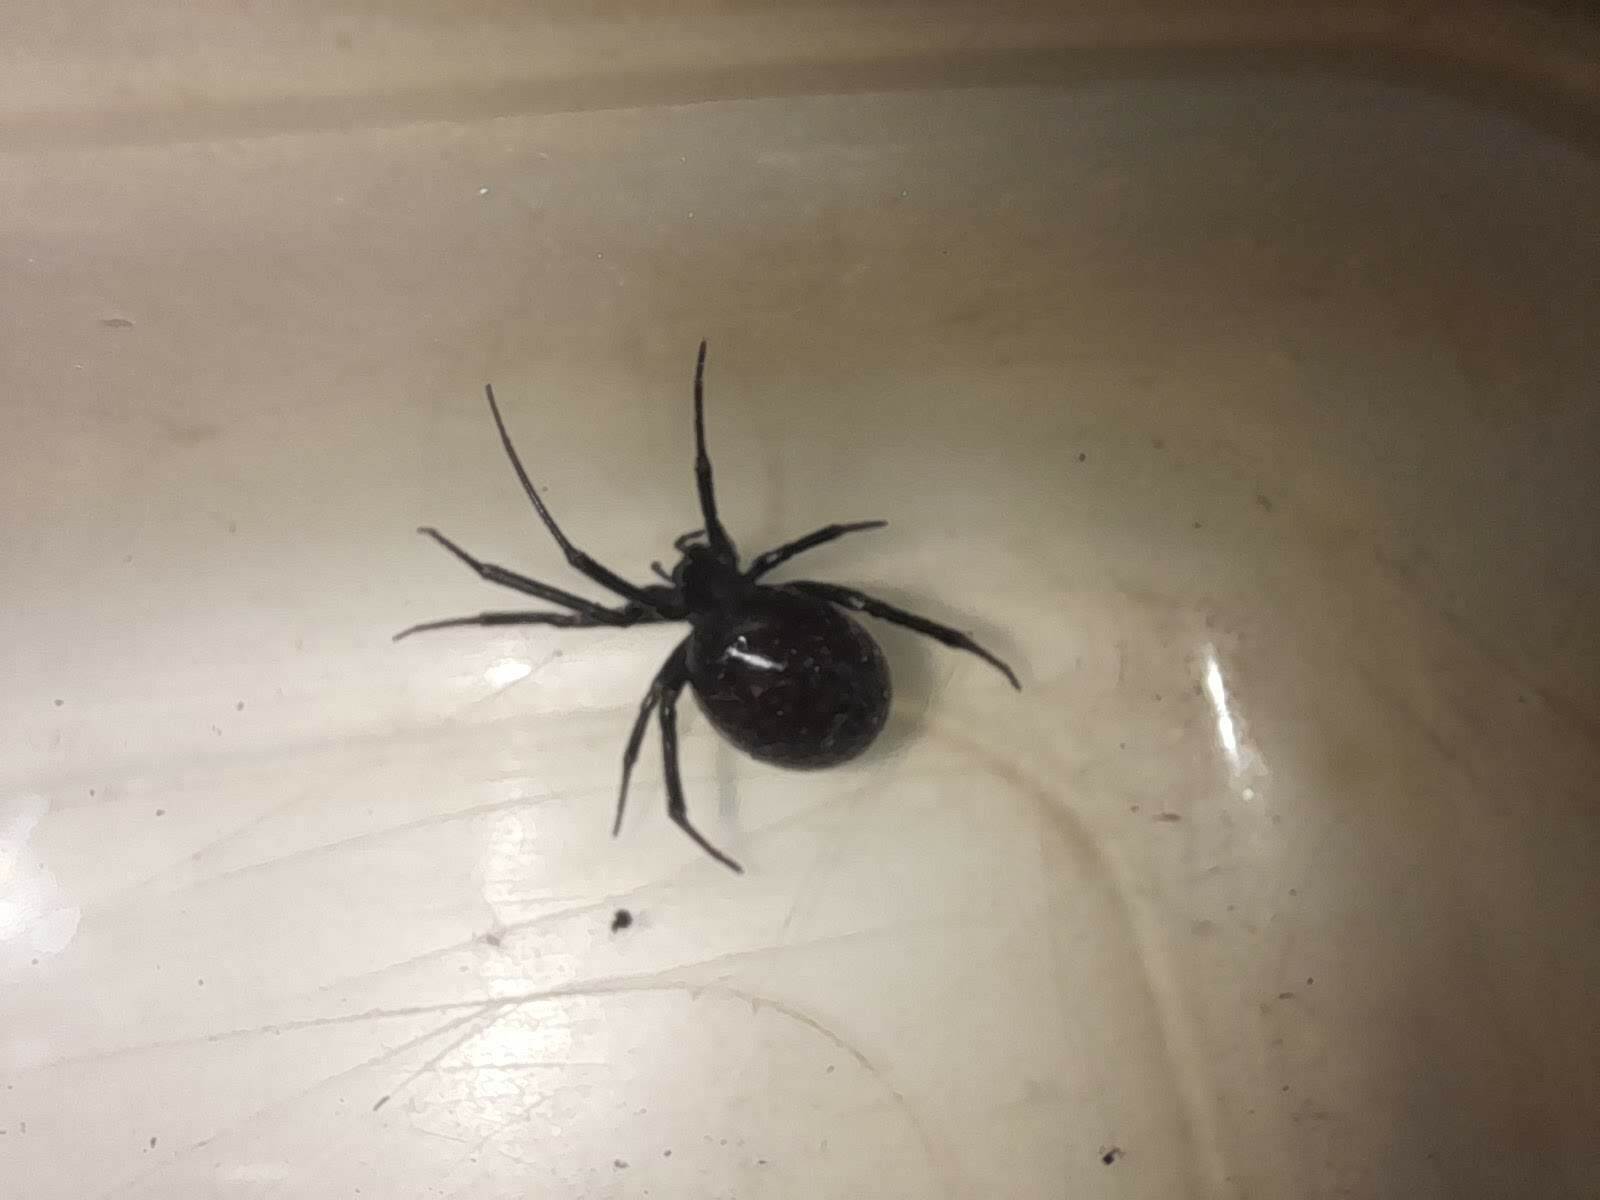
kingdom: Animalia
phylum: Arthropoda
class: Arachnida
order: Araneae
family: Theridiidae
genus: Steatoda
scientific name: Steatoda grossa
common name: False black widow
